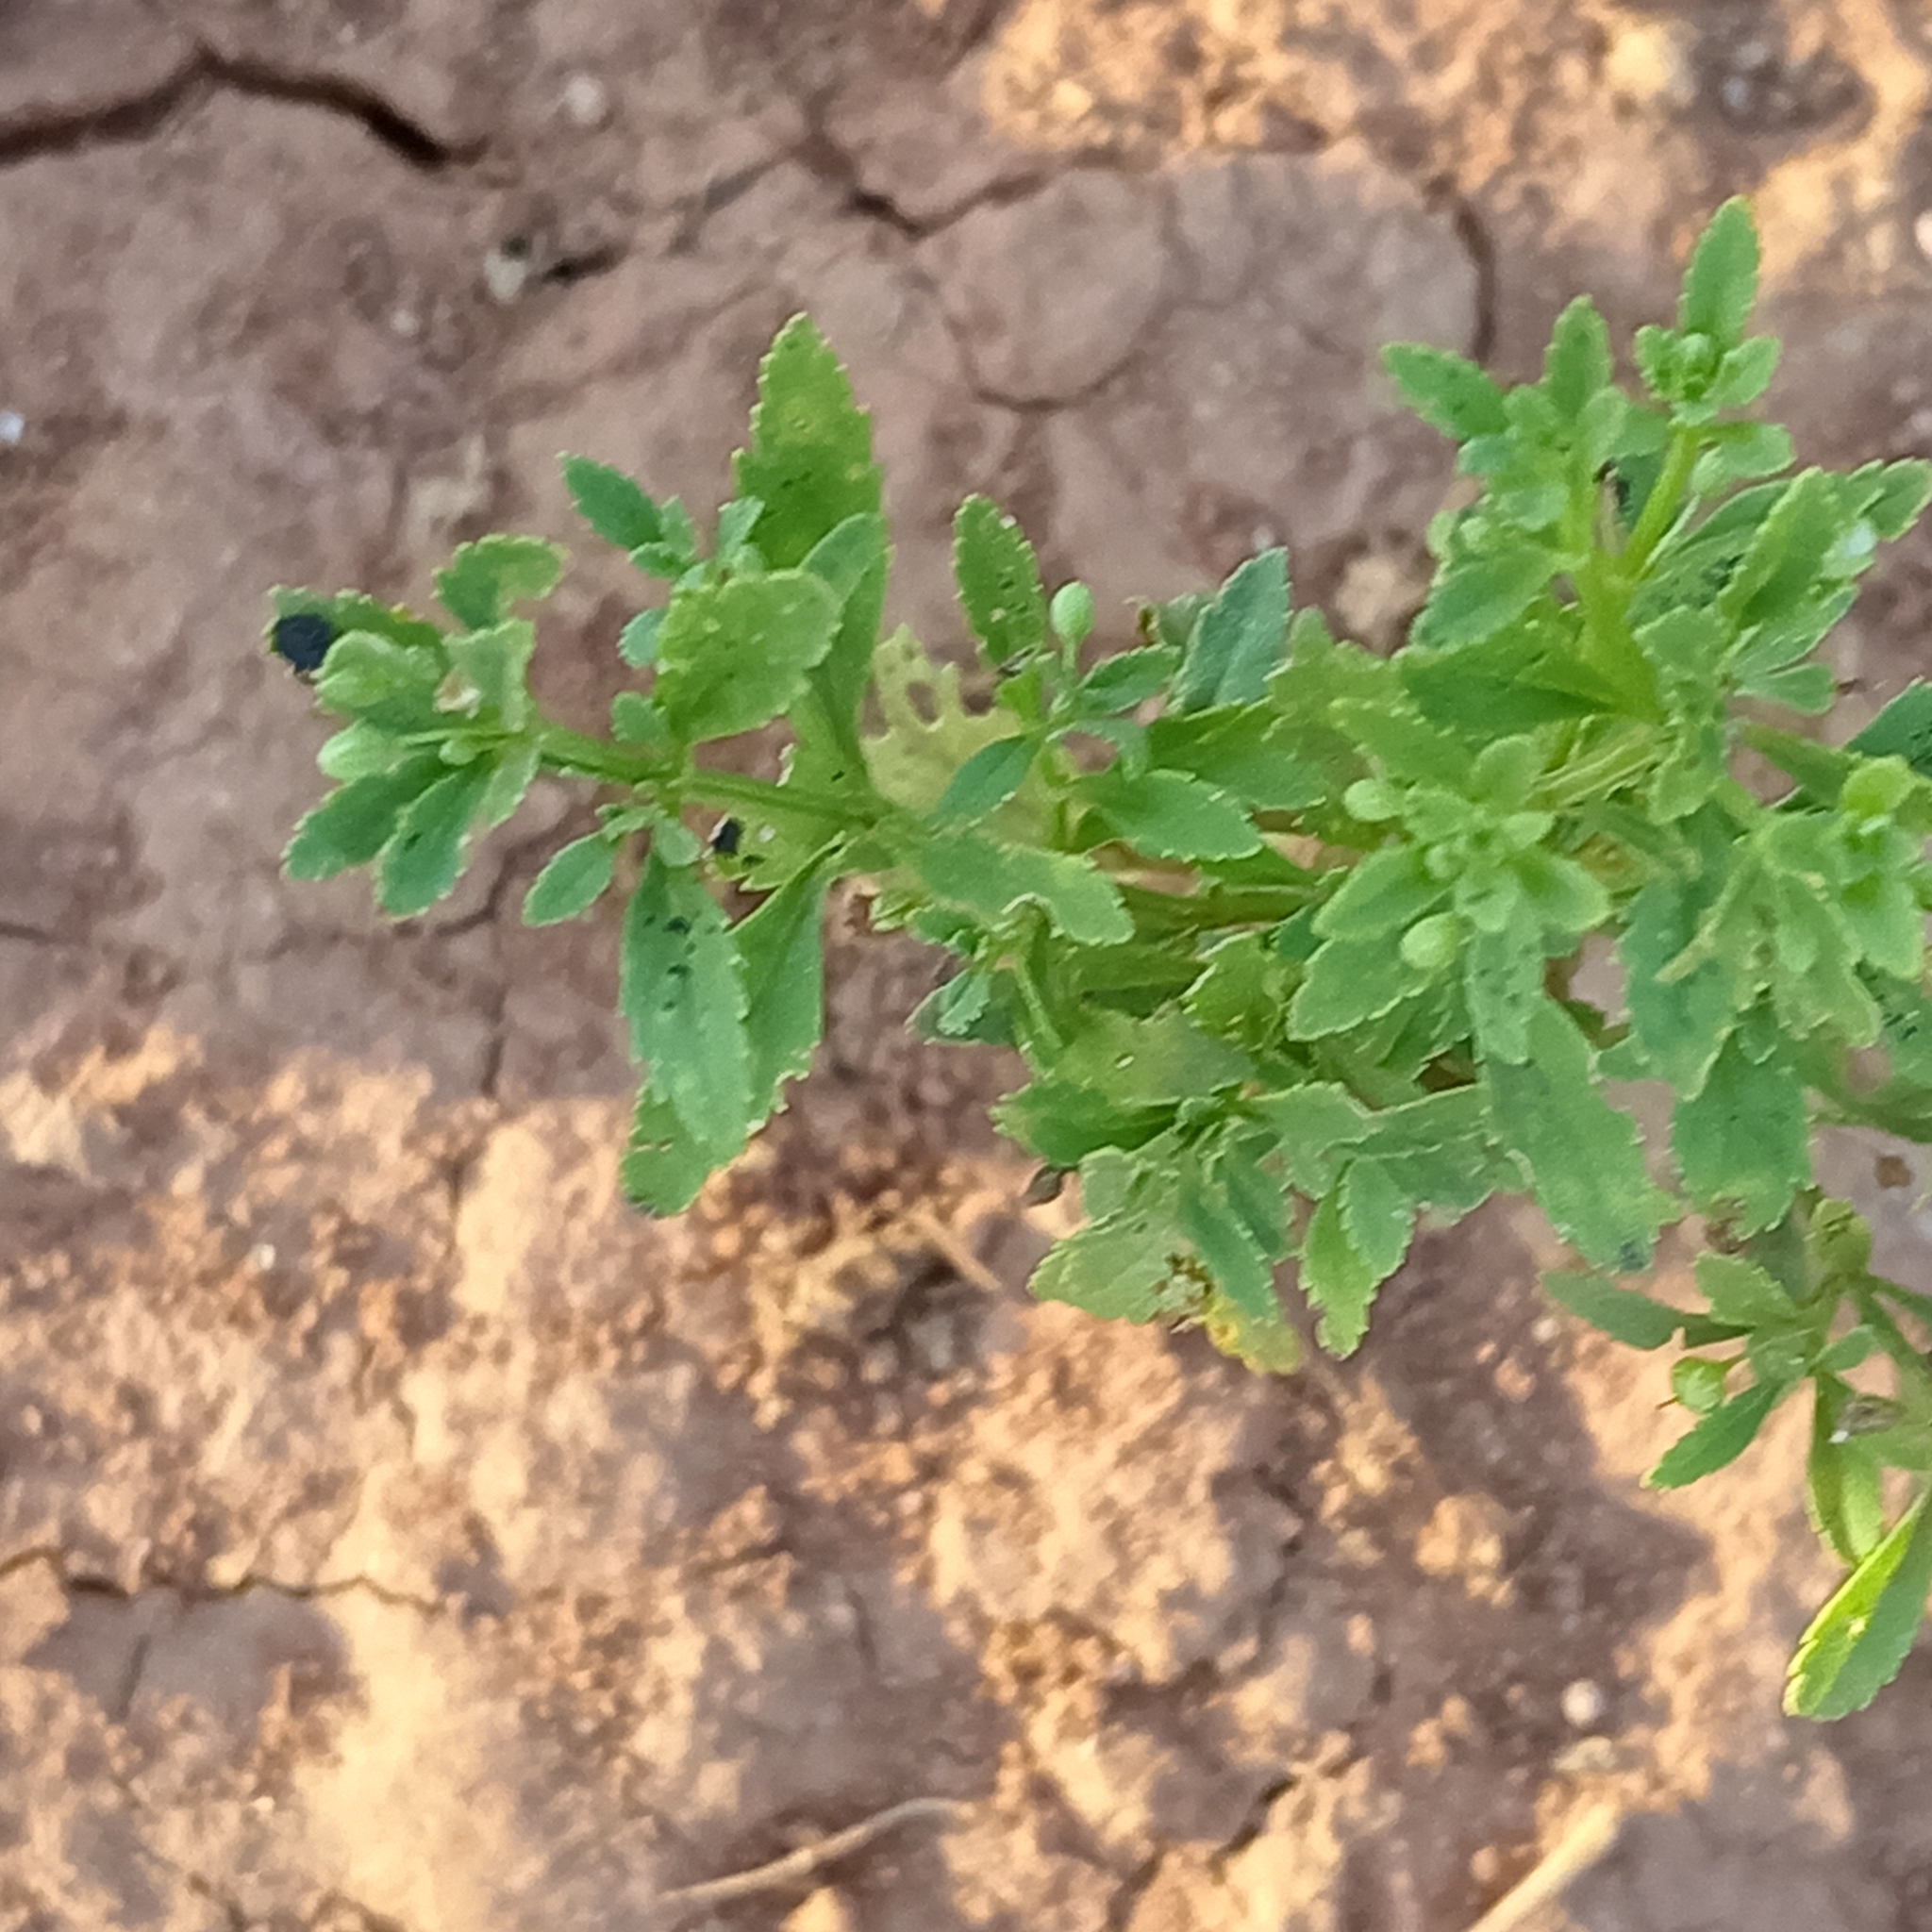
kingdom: Plantae
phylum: Tracheophyta
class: Magnoliopsida
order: Lamiales
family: Plantaginaceae
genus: Scoparia
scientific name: Scoparia dulcis
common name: Scoparia-weed
